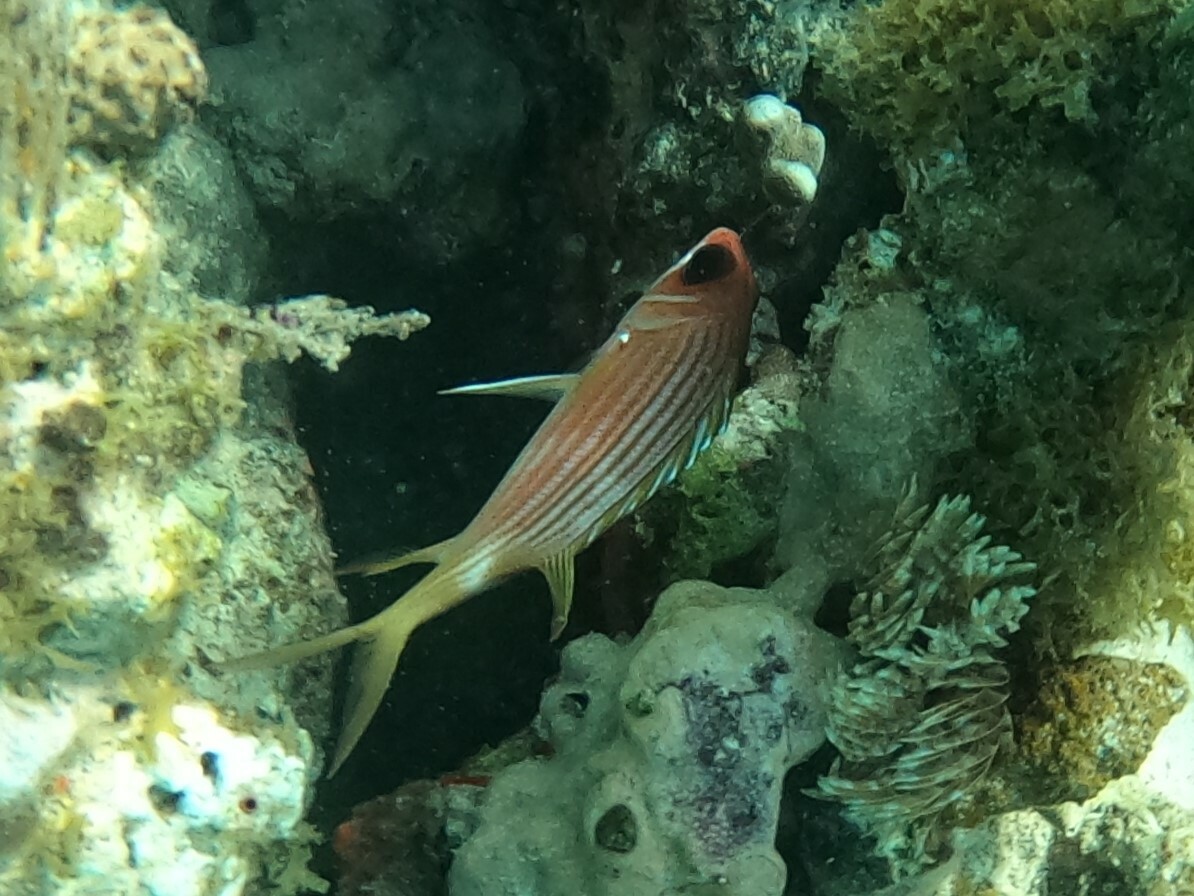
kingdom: Animalia
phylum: Chordata
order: Beryciformes
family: Holocentridae
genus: Holocentrus
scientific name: Holocentrus rufus
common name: Longspine squirrelfish
